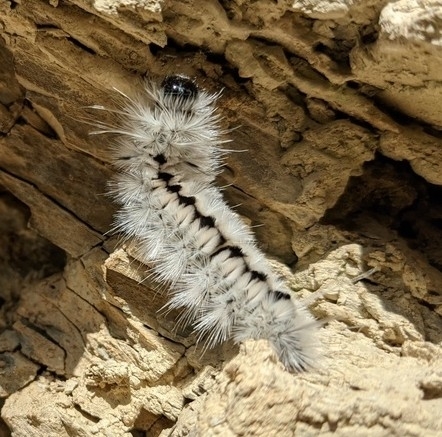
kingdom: Animalia
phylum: Arthropoda
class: Insecta
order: Lepidoptera
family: Erebidae
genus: Lophocampa
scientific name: Lophocampa caryae
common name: Hickory tussock moth
